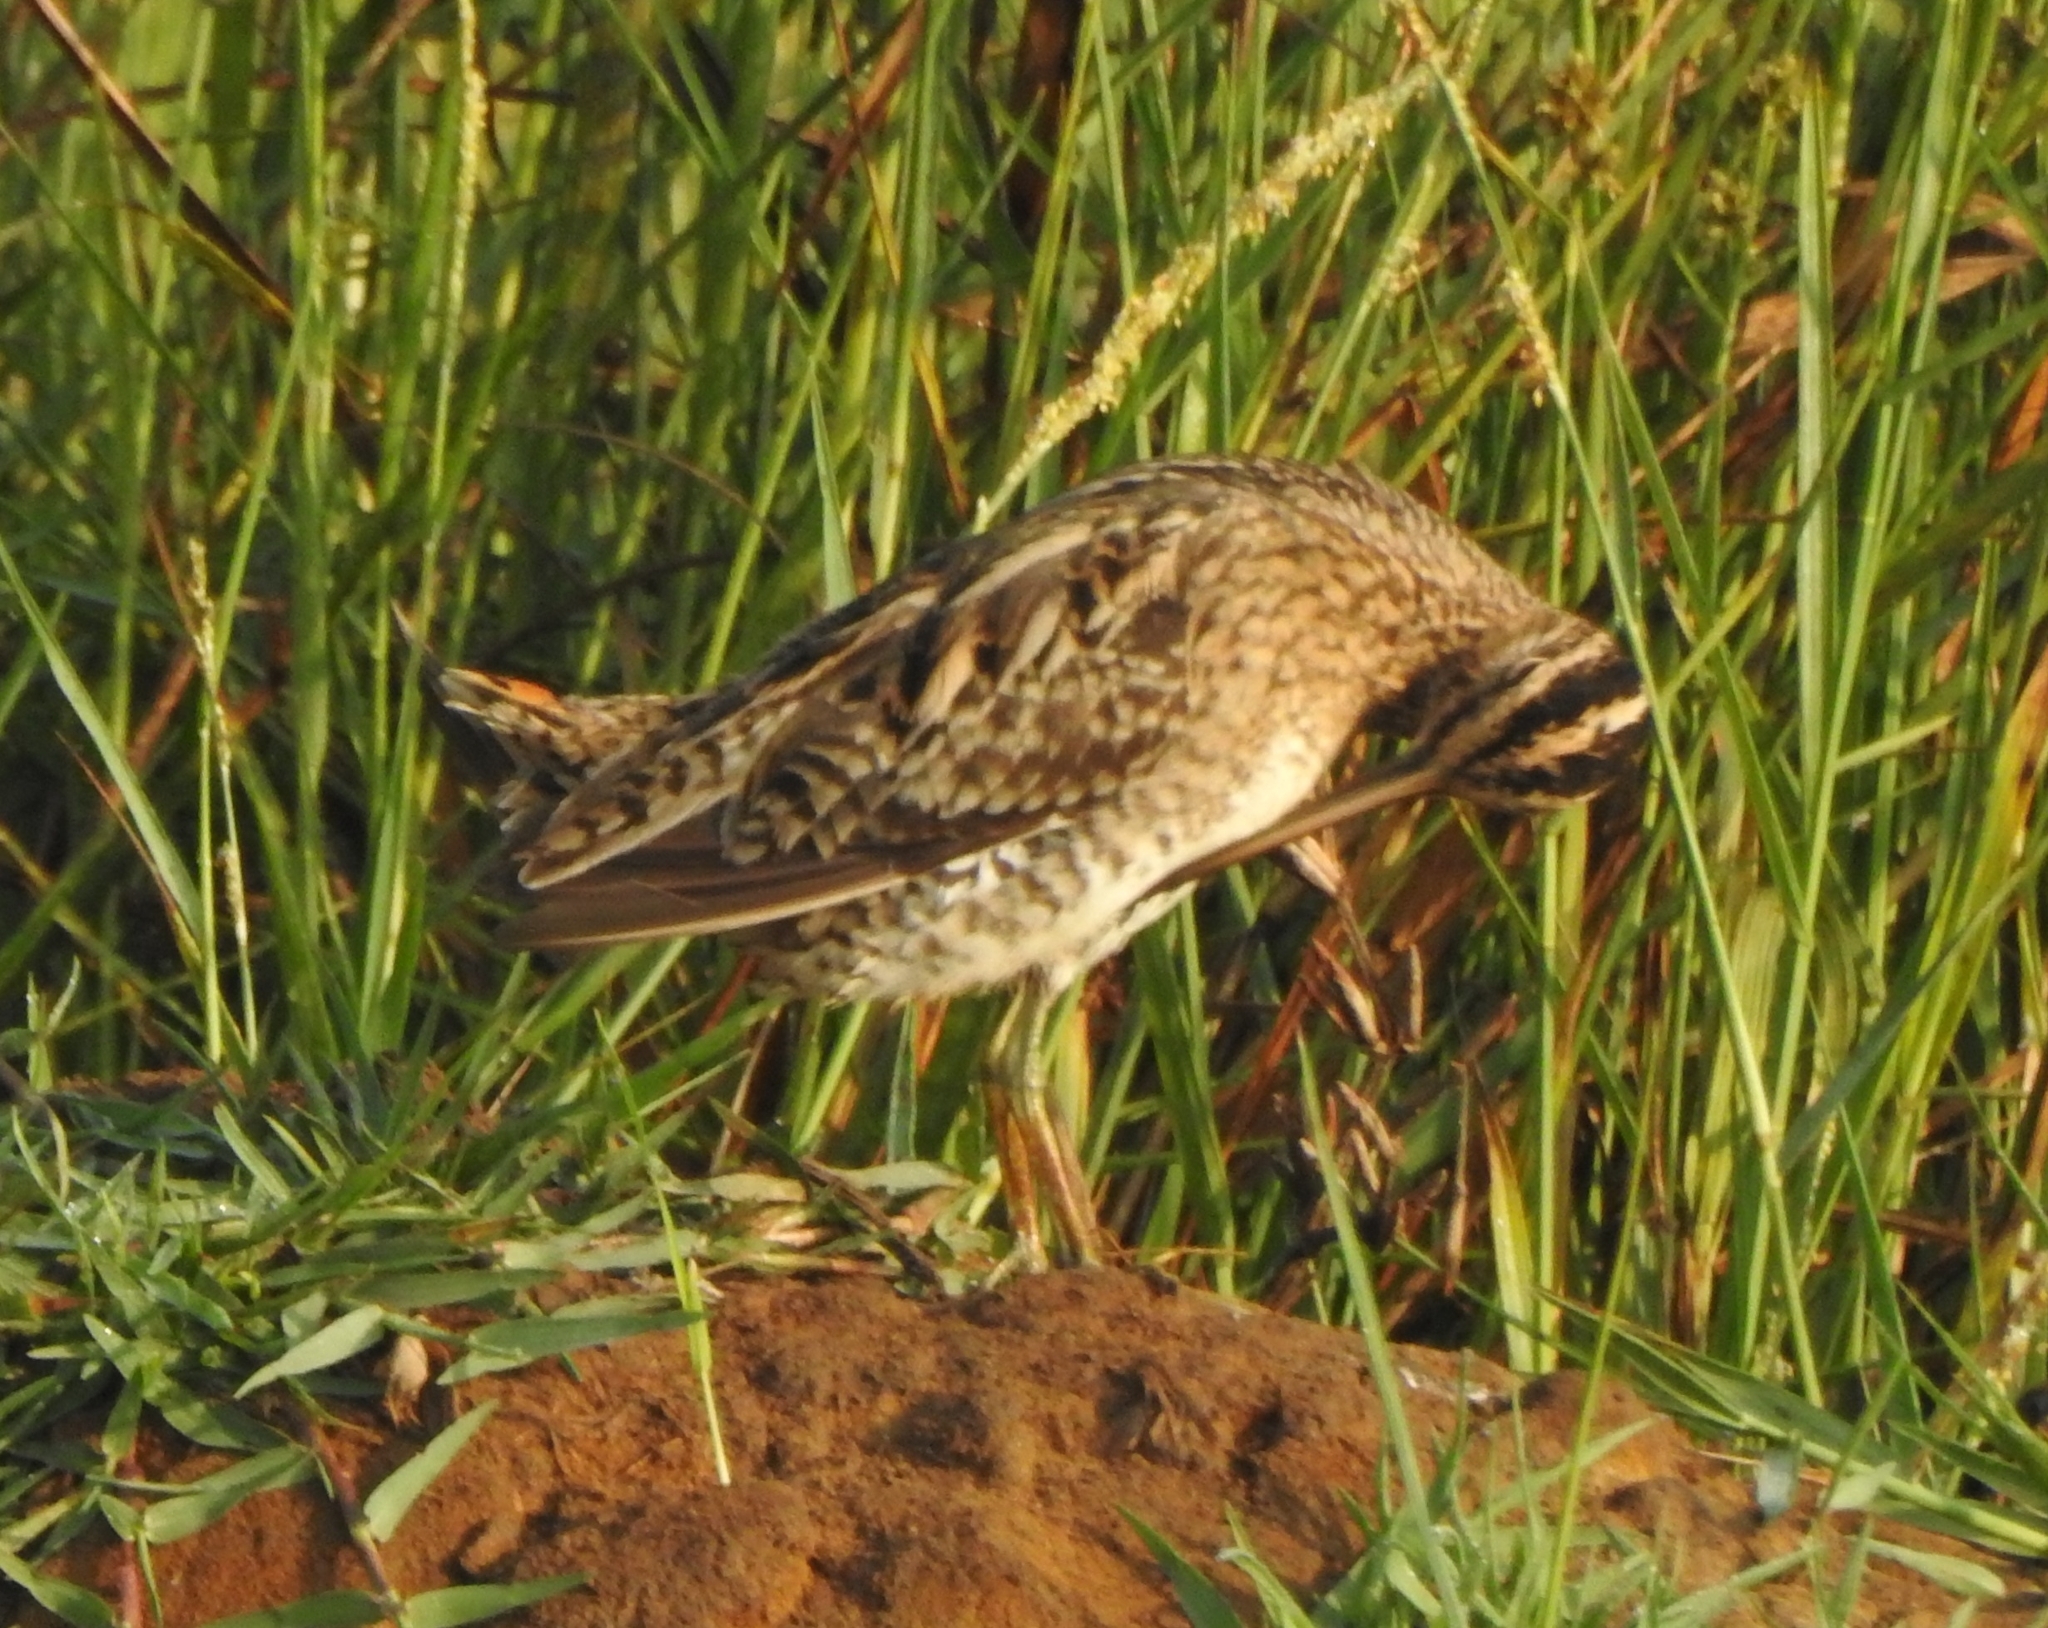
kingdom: Animalia
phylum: Chordata
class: Aves
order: Charadriiformes
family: Scolopacidae
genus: Gallinago
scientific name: Gallinago stenura
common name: Pin-tailed snipe
